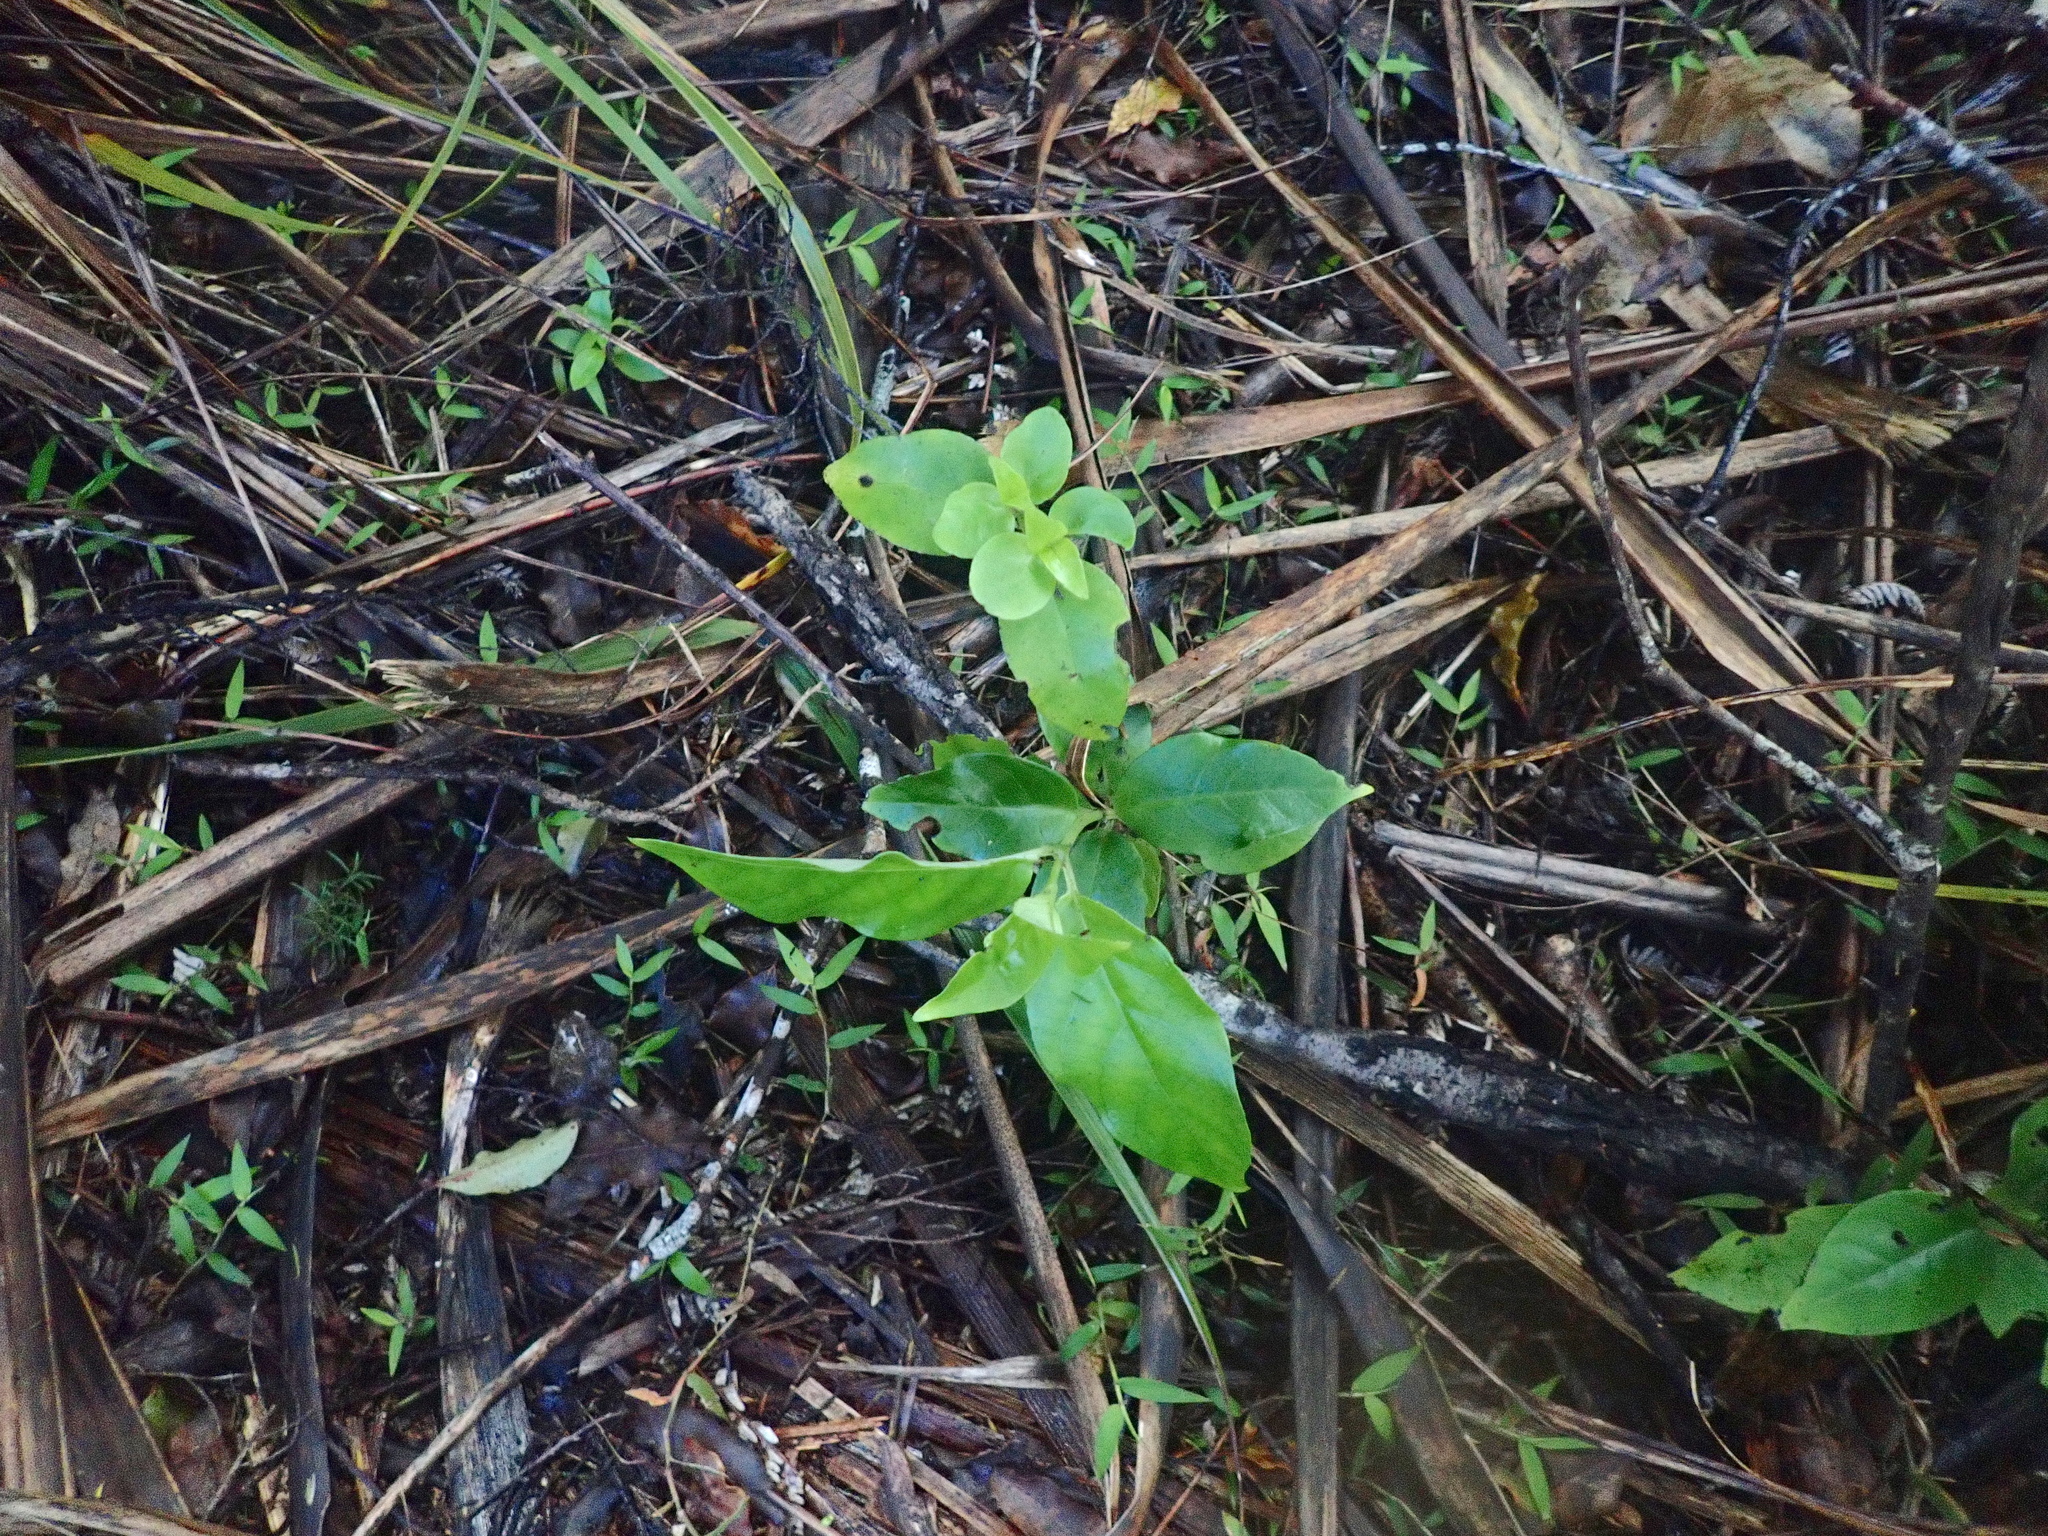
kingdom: Plantae
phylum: Tracheophyta
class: Magnoliopsida
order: Gentianales
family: Loganiaceae
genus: Geniostoma
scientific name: Geniostoma ligustrifolium
